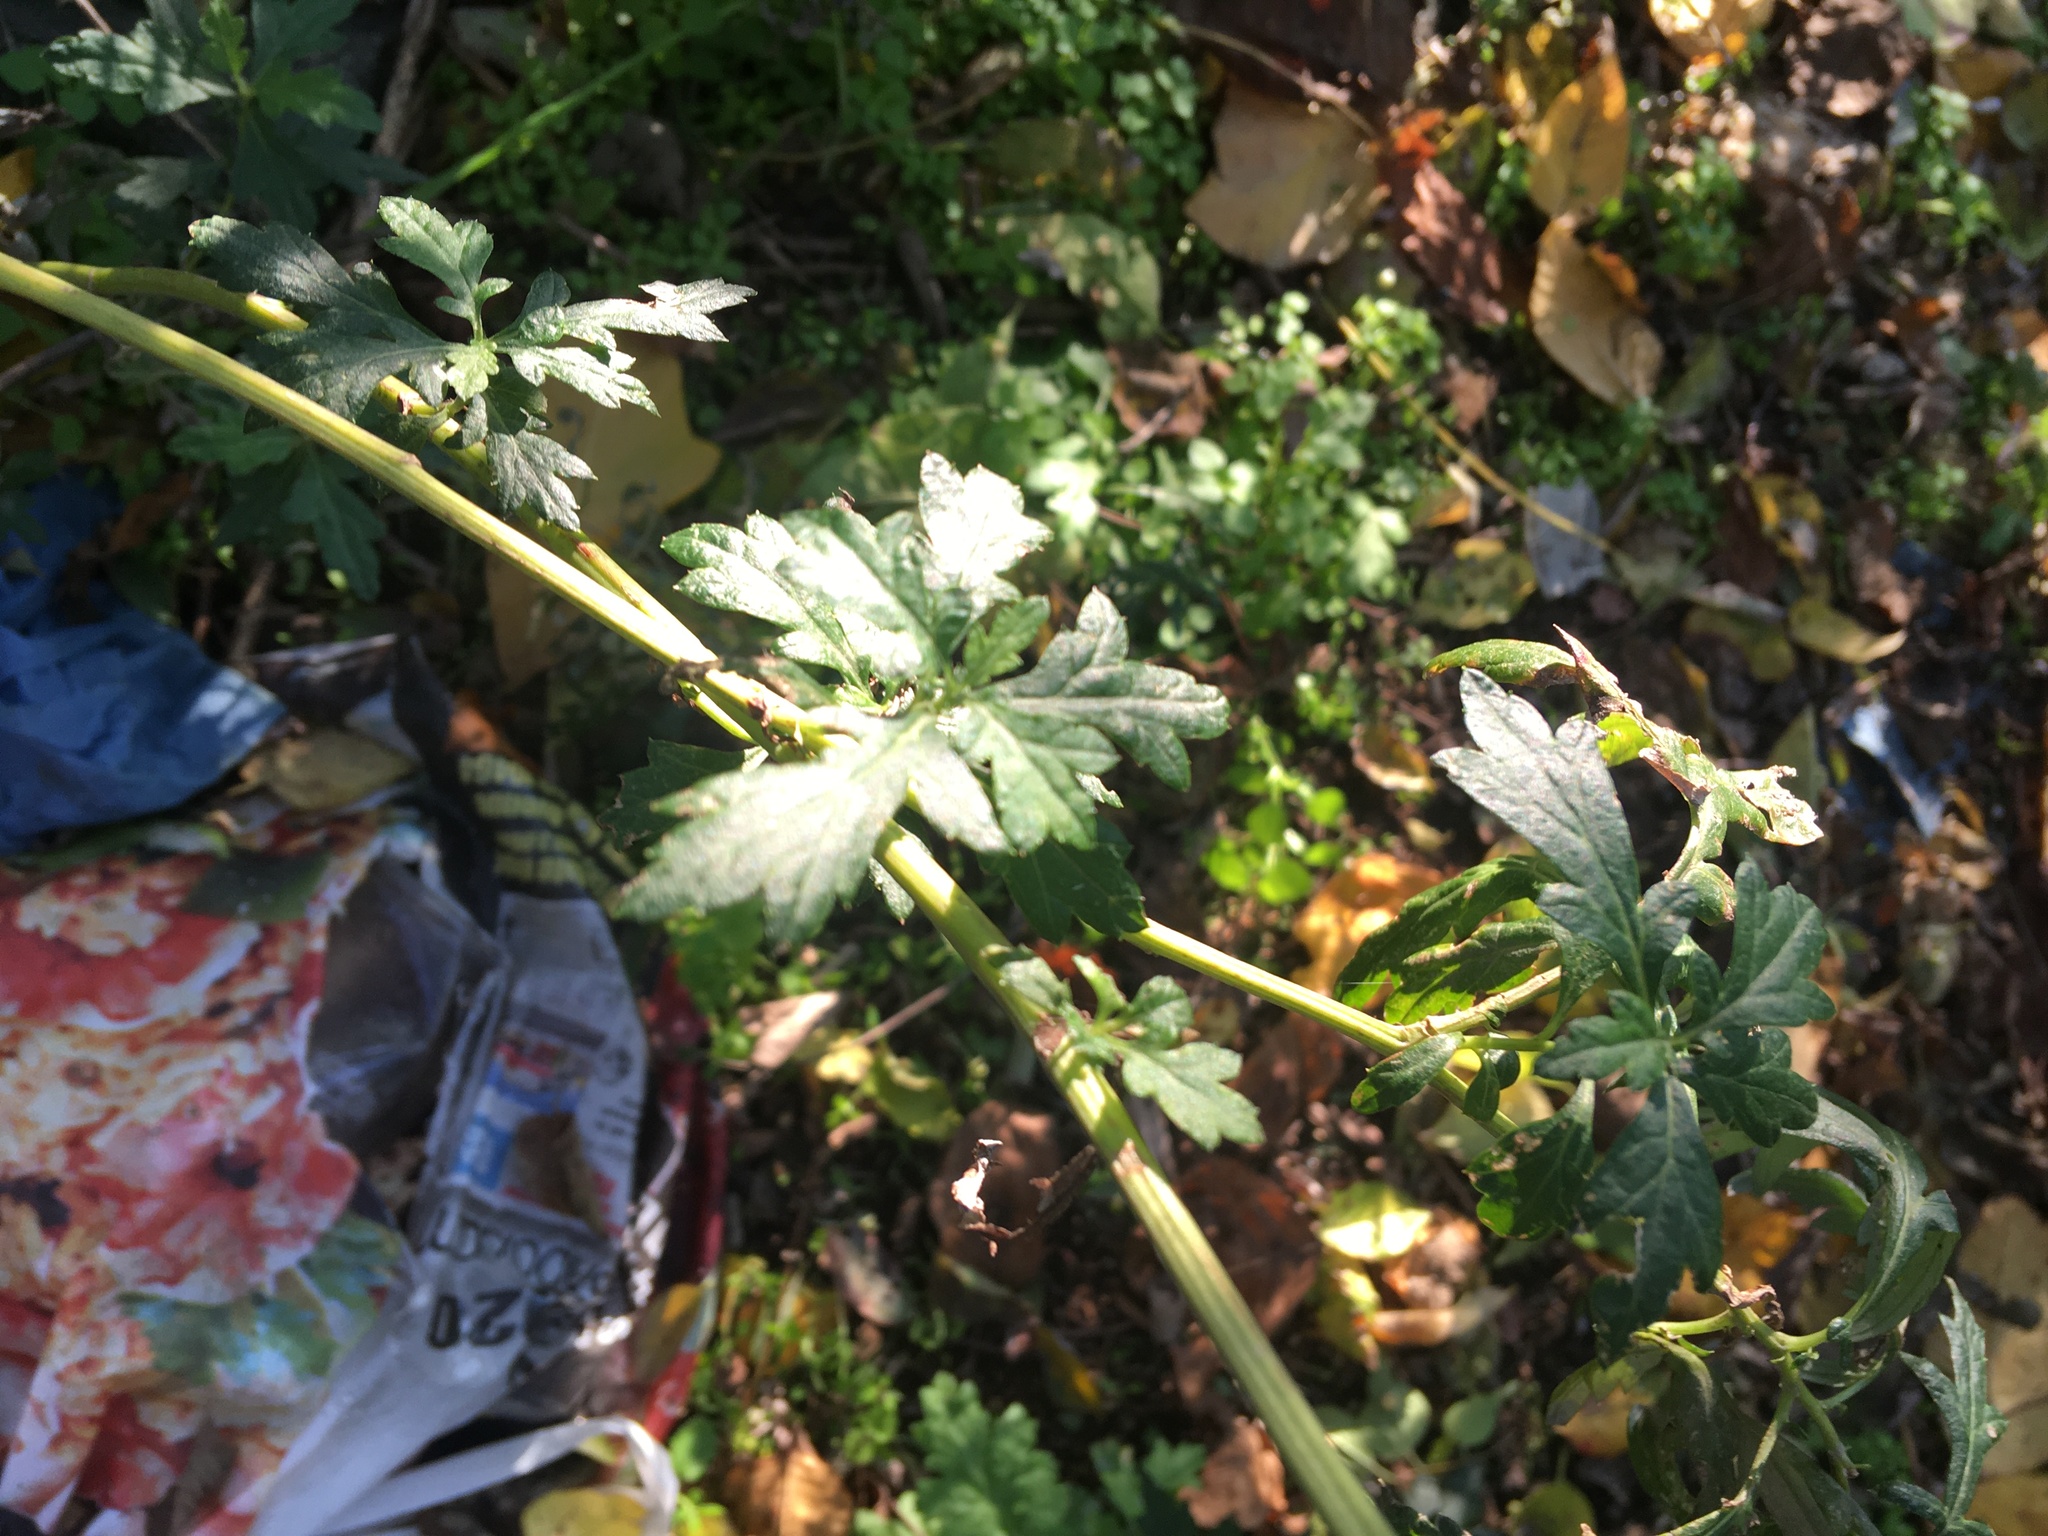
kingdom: Plantae
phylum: Tracheophyta
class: Magnoliopsida
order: Asterales
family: Asteraceae
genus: Artemisia
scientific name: Artemisia vulgaris
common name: Mugwort
